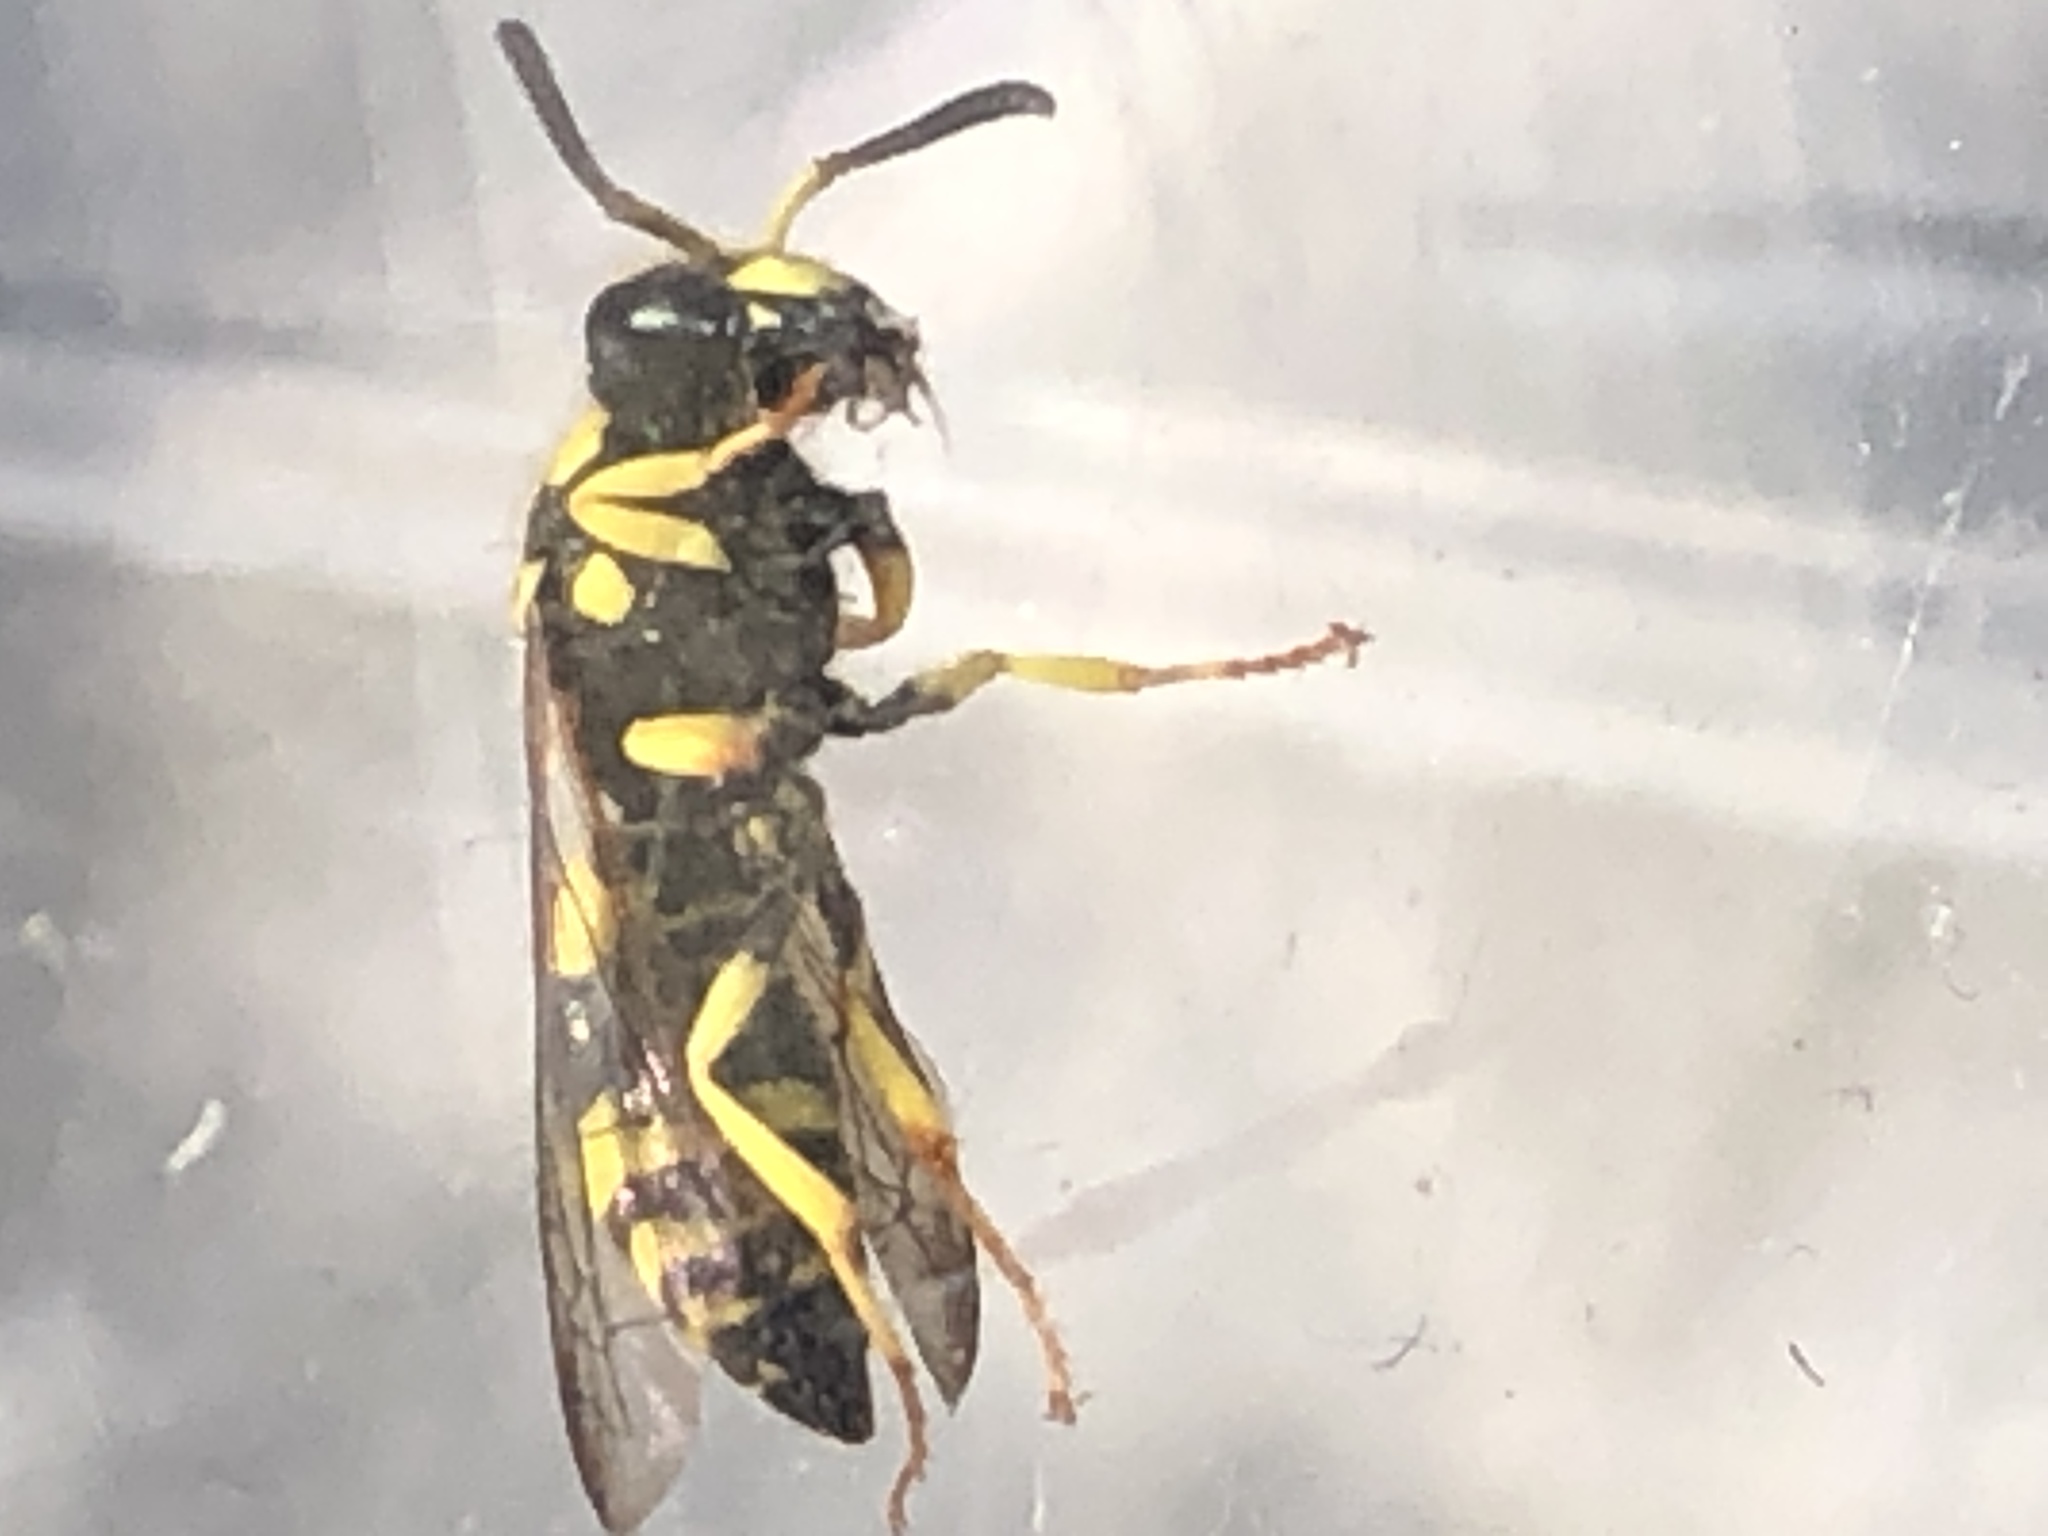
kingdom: Animalia
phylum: Arthropoda
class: Insecta
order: Hymenoptera
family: Vespidae
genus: Ancistrocerus
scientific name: Ancistrocerus gazella
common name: European tube wasp
